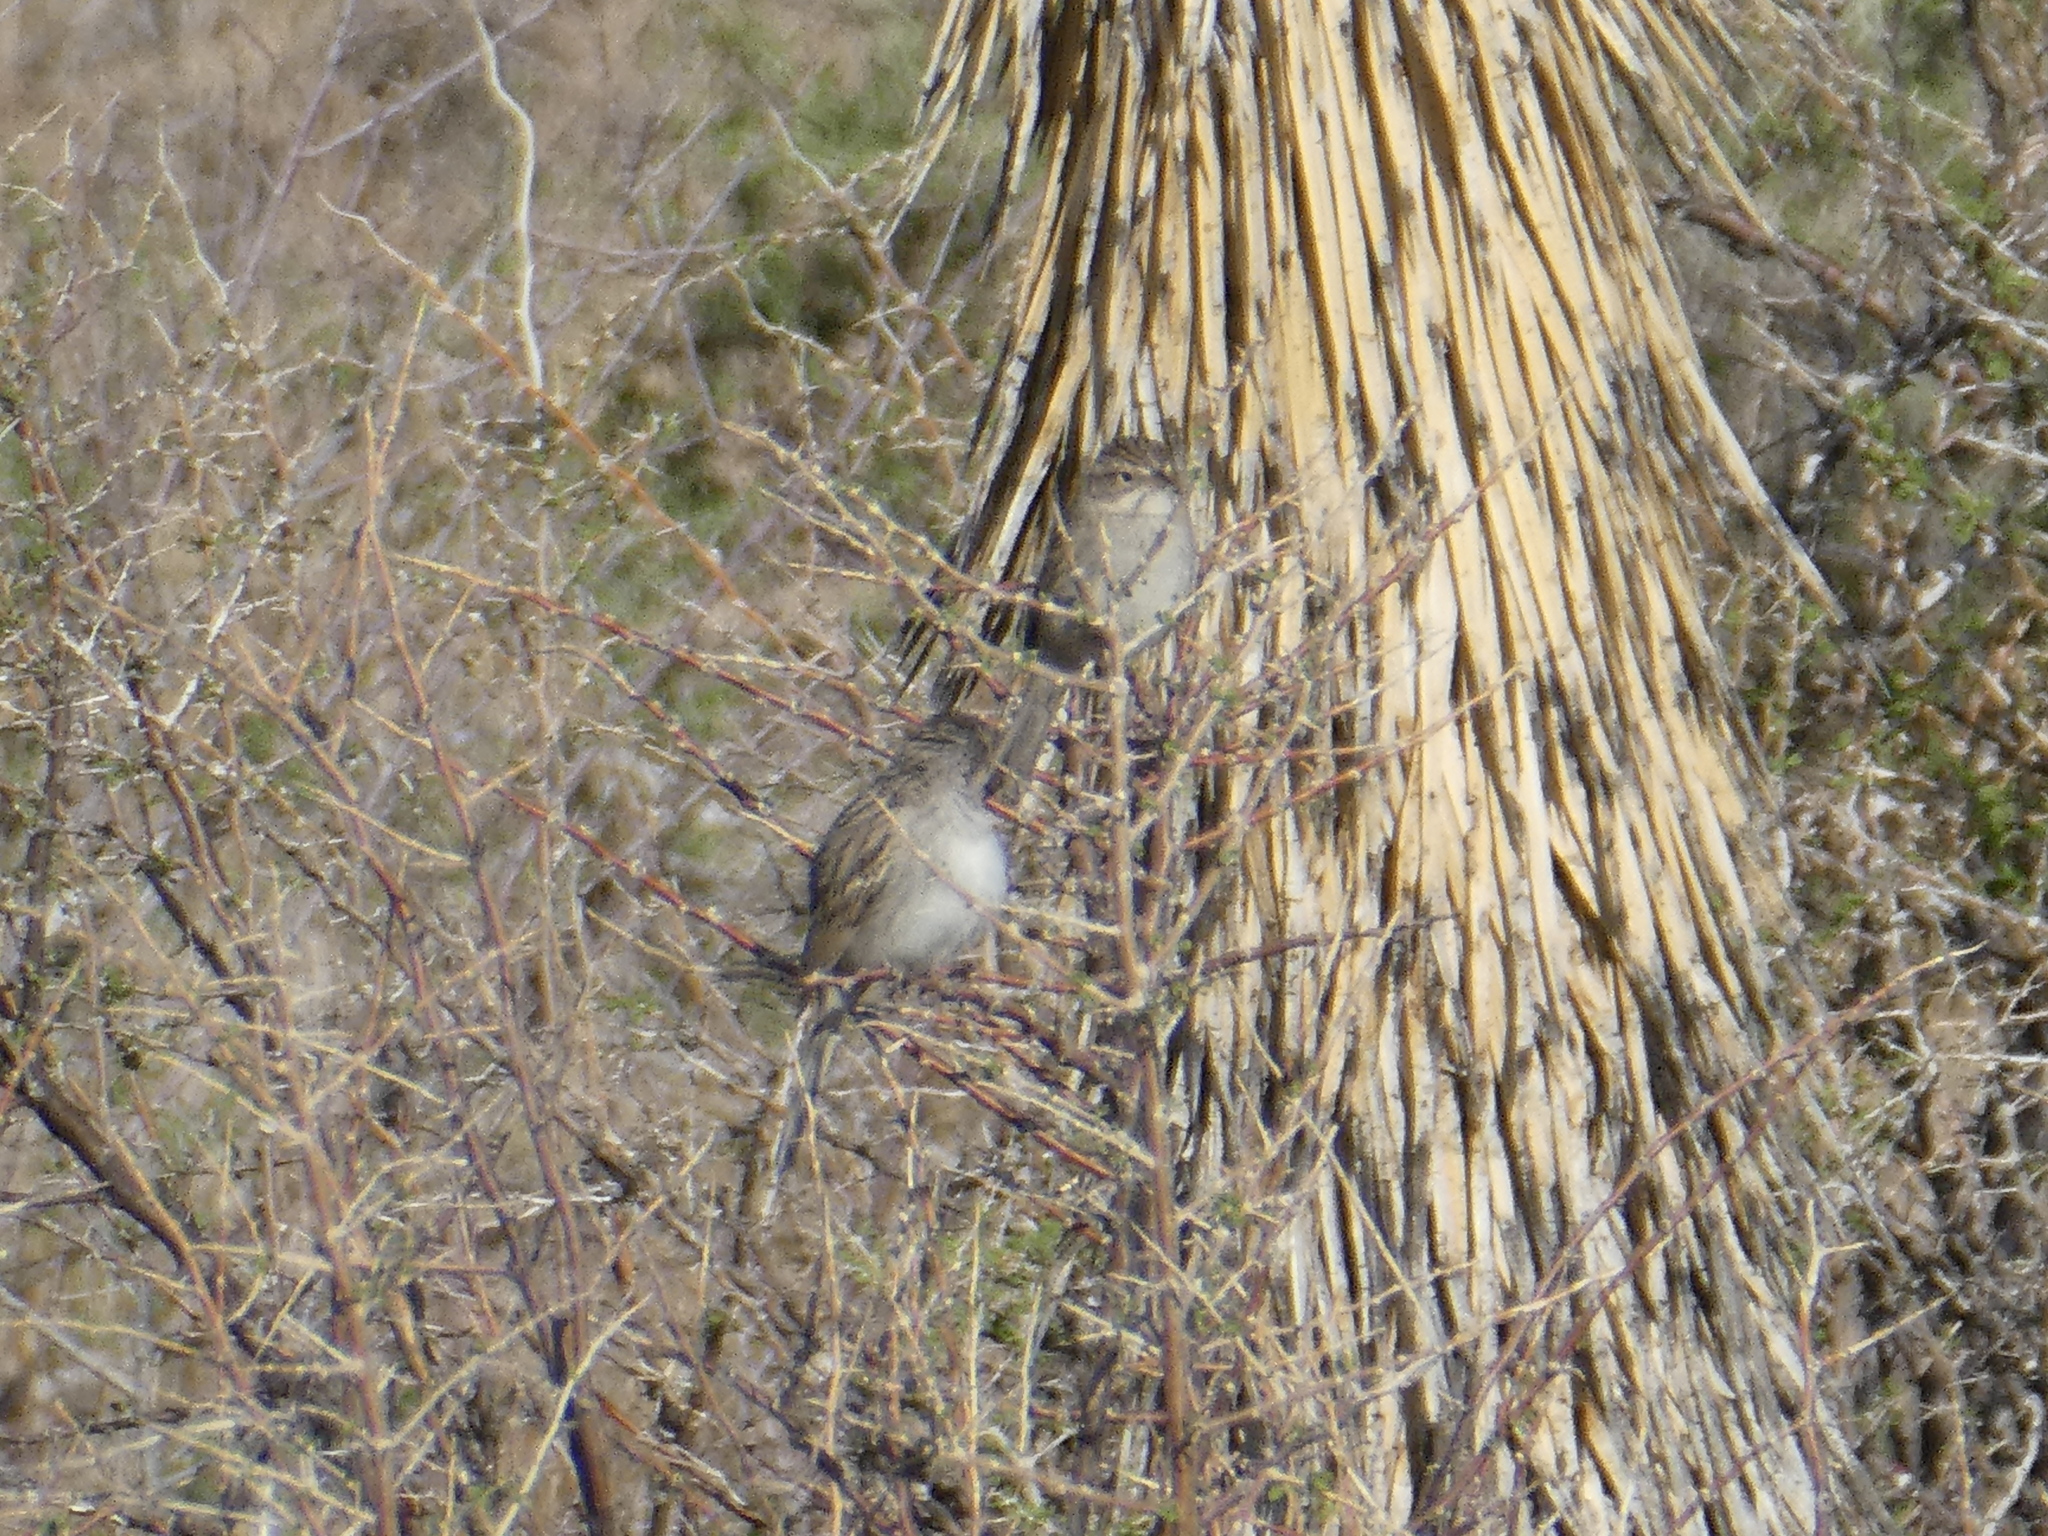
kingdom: Animalia
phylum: Chordata
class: Aves
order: Passeriformes
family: Passerellidae
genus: Spizella
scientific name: Spizella breweri
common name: Brewer's sparrow
